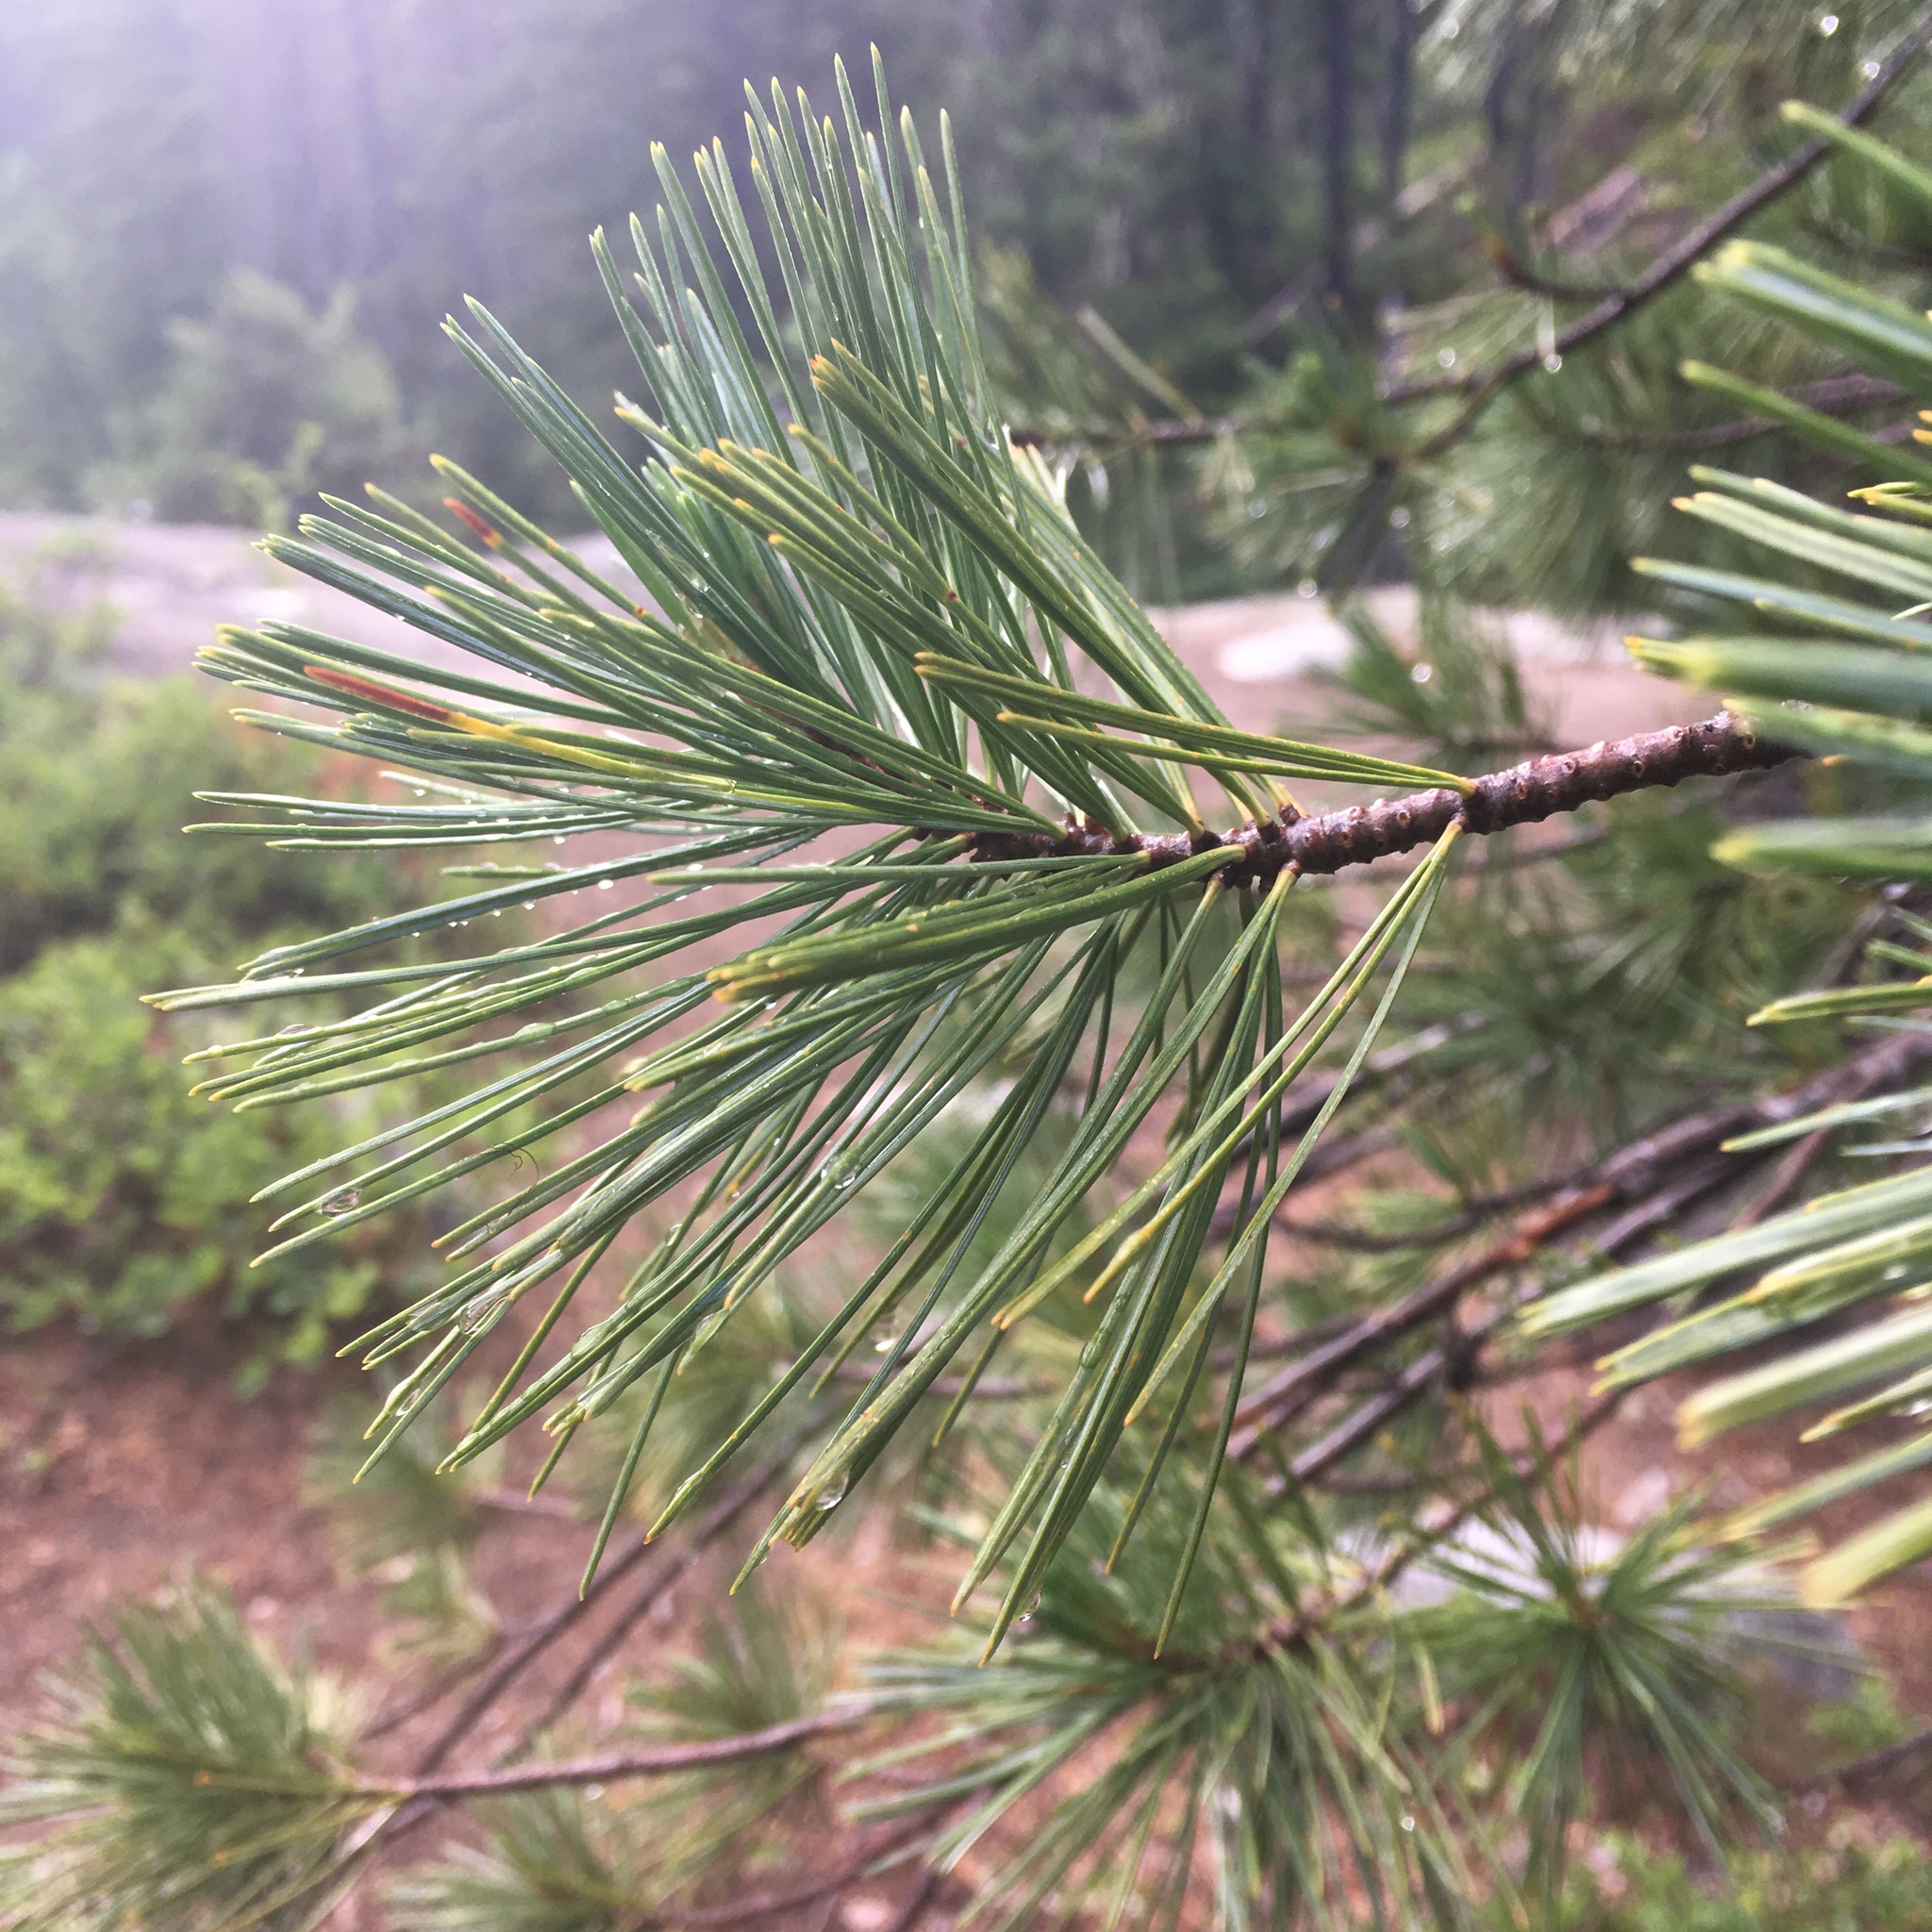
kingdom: Plantae
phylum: Tracheophyta
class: Pinopsida
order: Pinales
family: Pinaceae
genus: Pinus
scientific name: Pinus ponderosa
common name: Western yellow-pine
